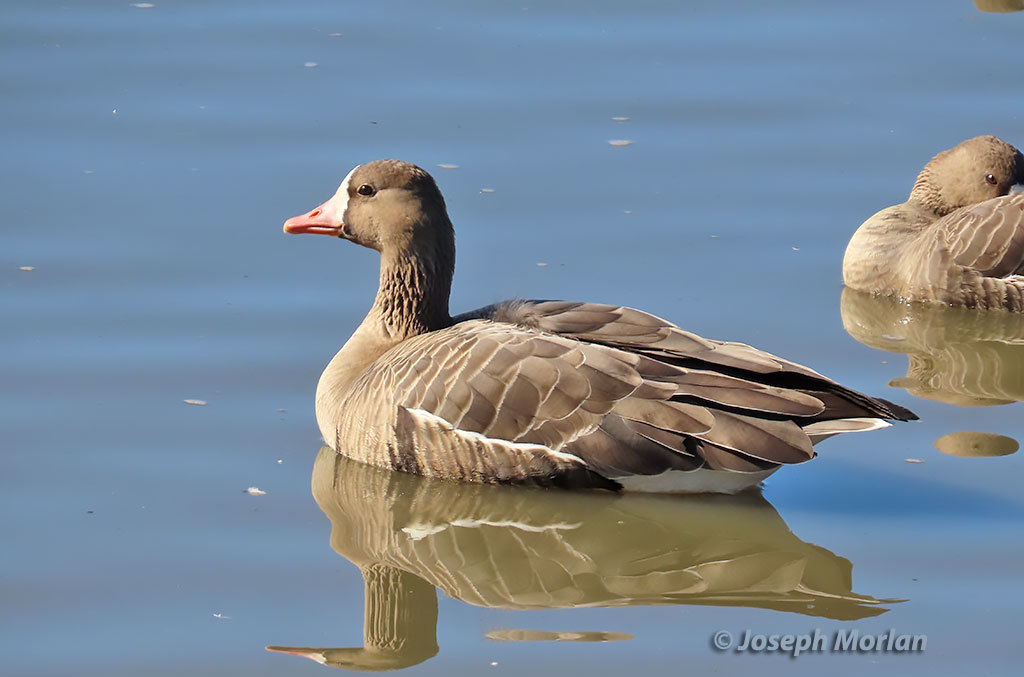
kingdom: Animalia
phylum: Chordata
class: Aves
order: Anseriformes
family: Anatidae
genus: Anser
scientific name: Anser albifrons
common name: Greater white-fronted goose
